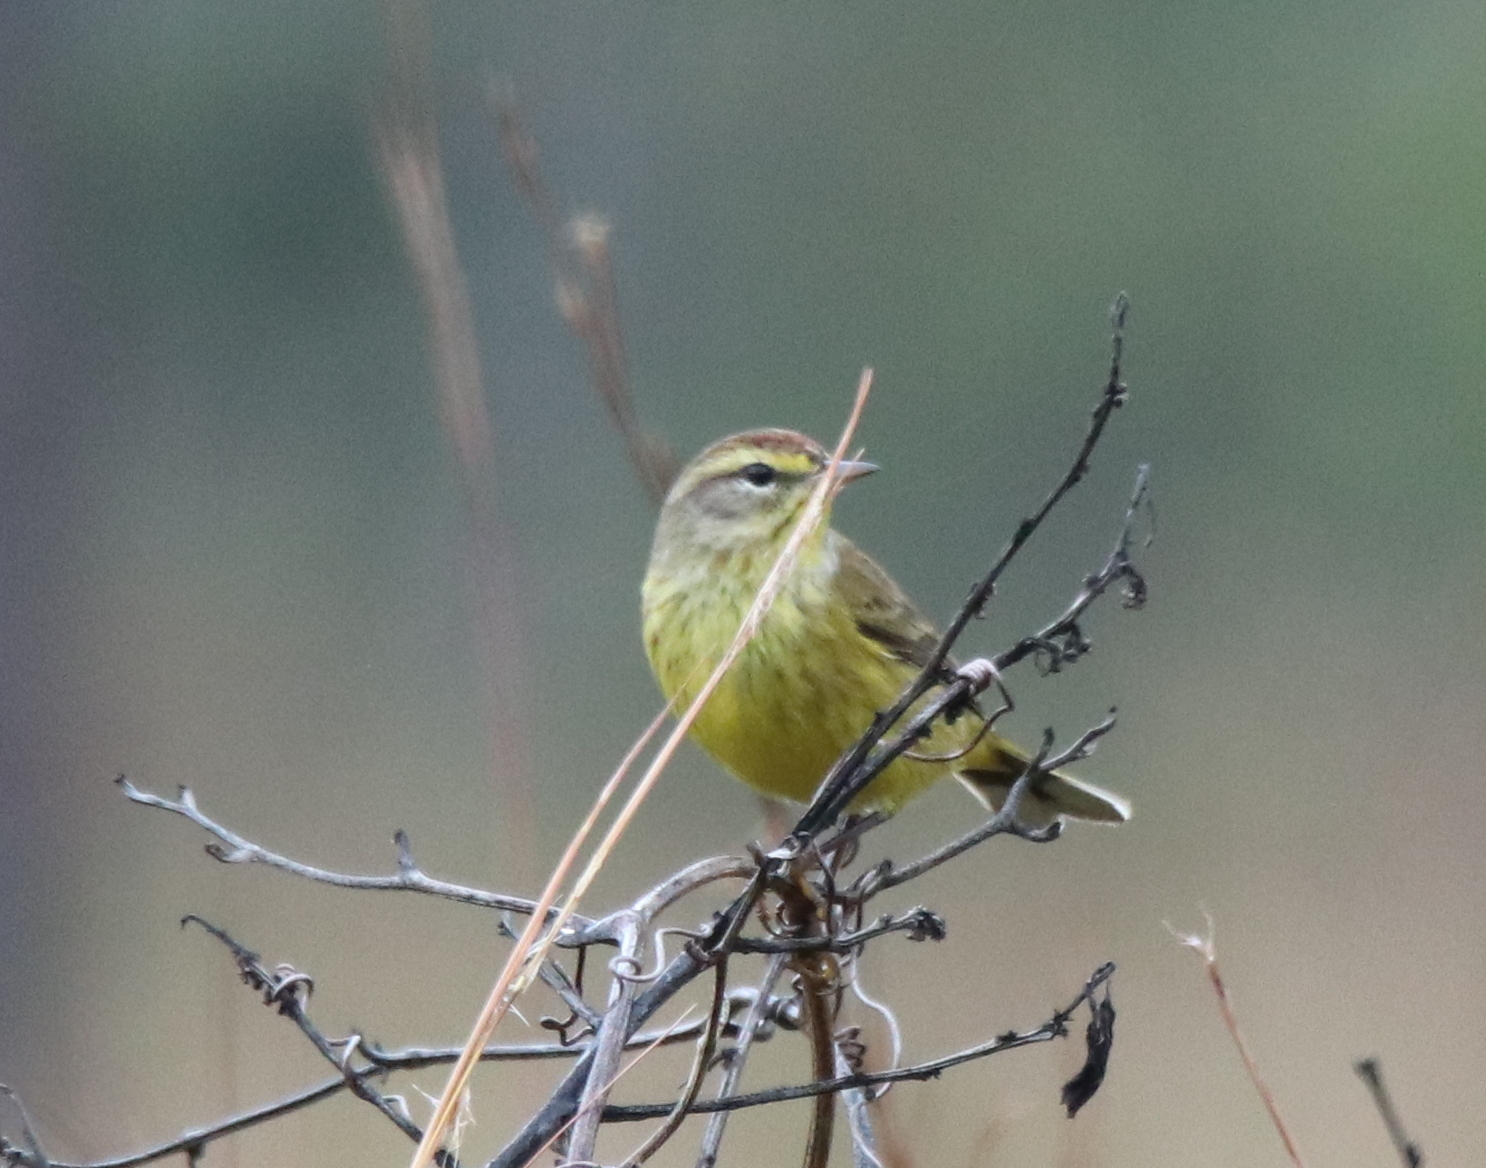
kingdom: Animalia
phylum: Chordata
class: Aves
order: Passeriformes
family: Parulidae
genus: Setophaga
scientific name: Setophaga palmarum
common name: Palm warbler
